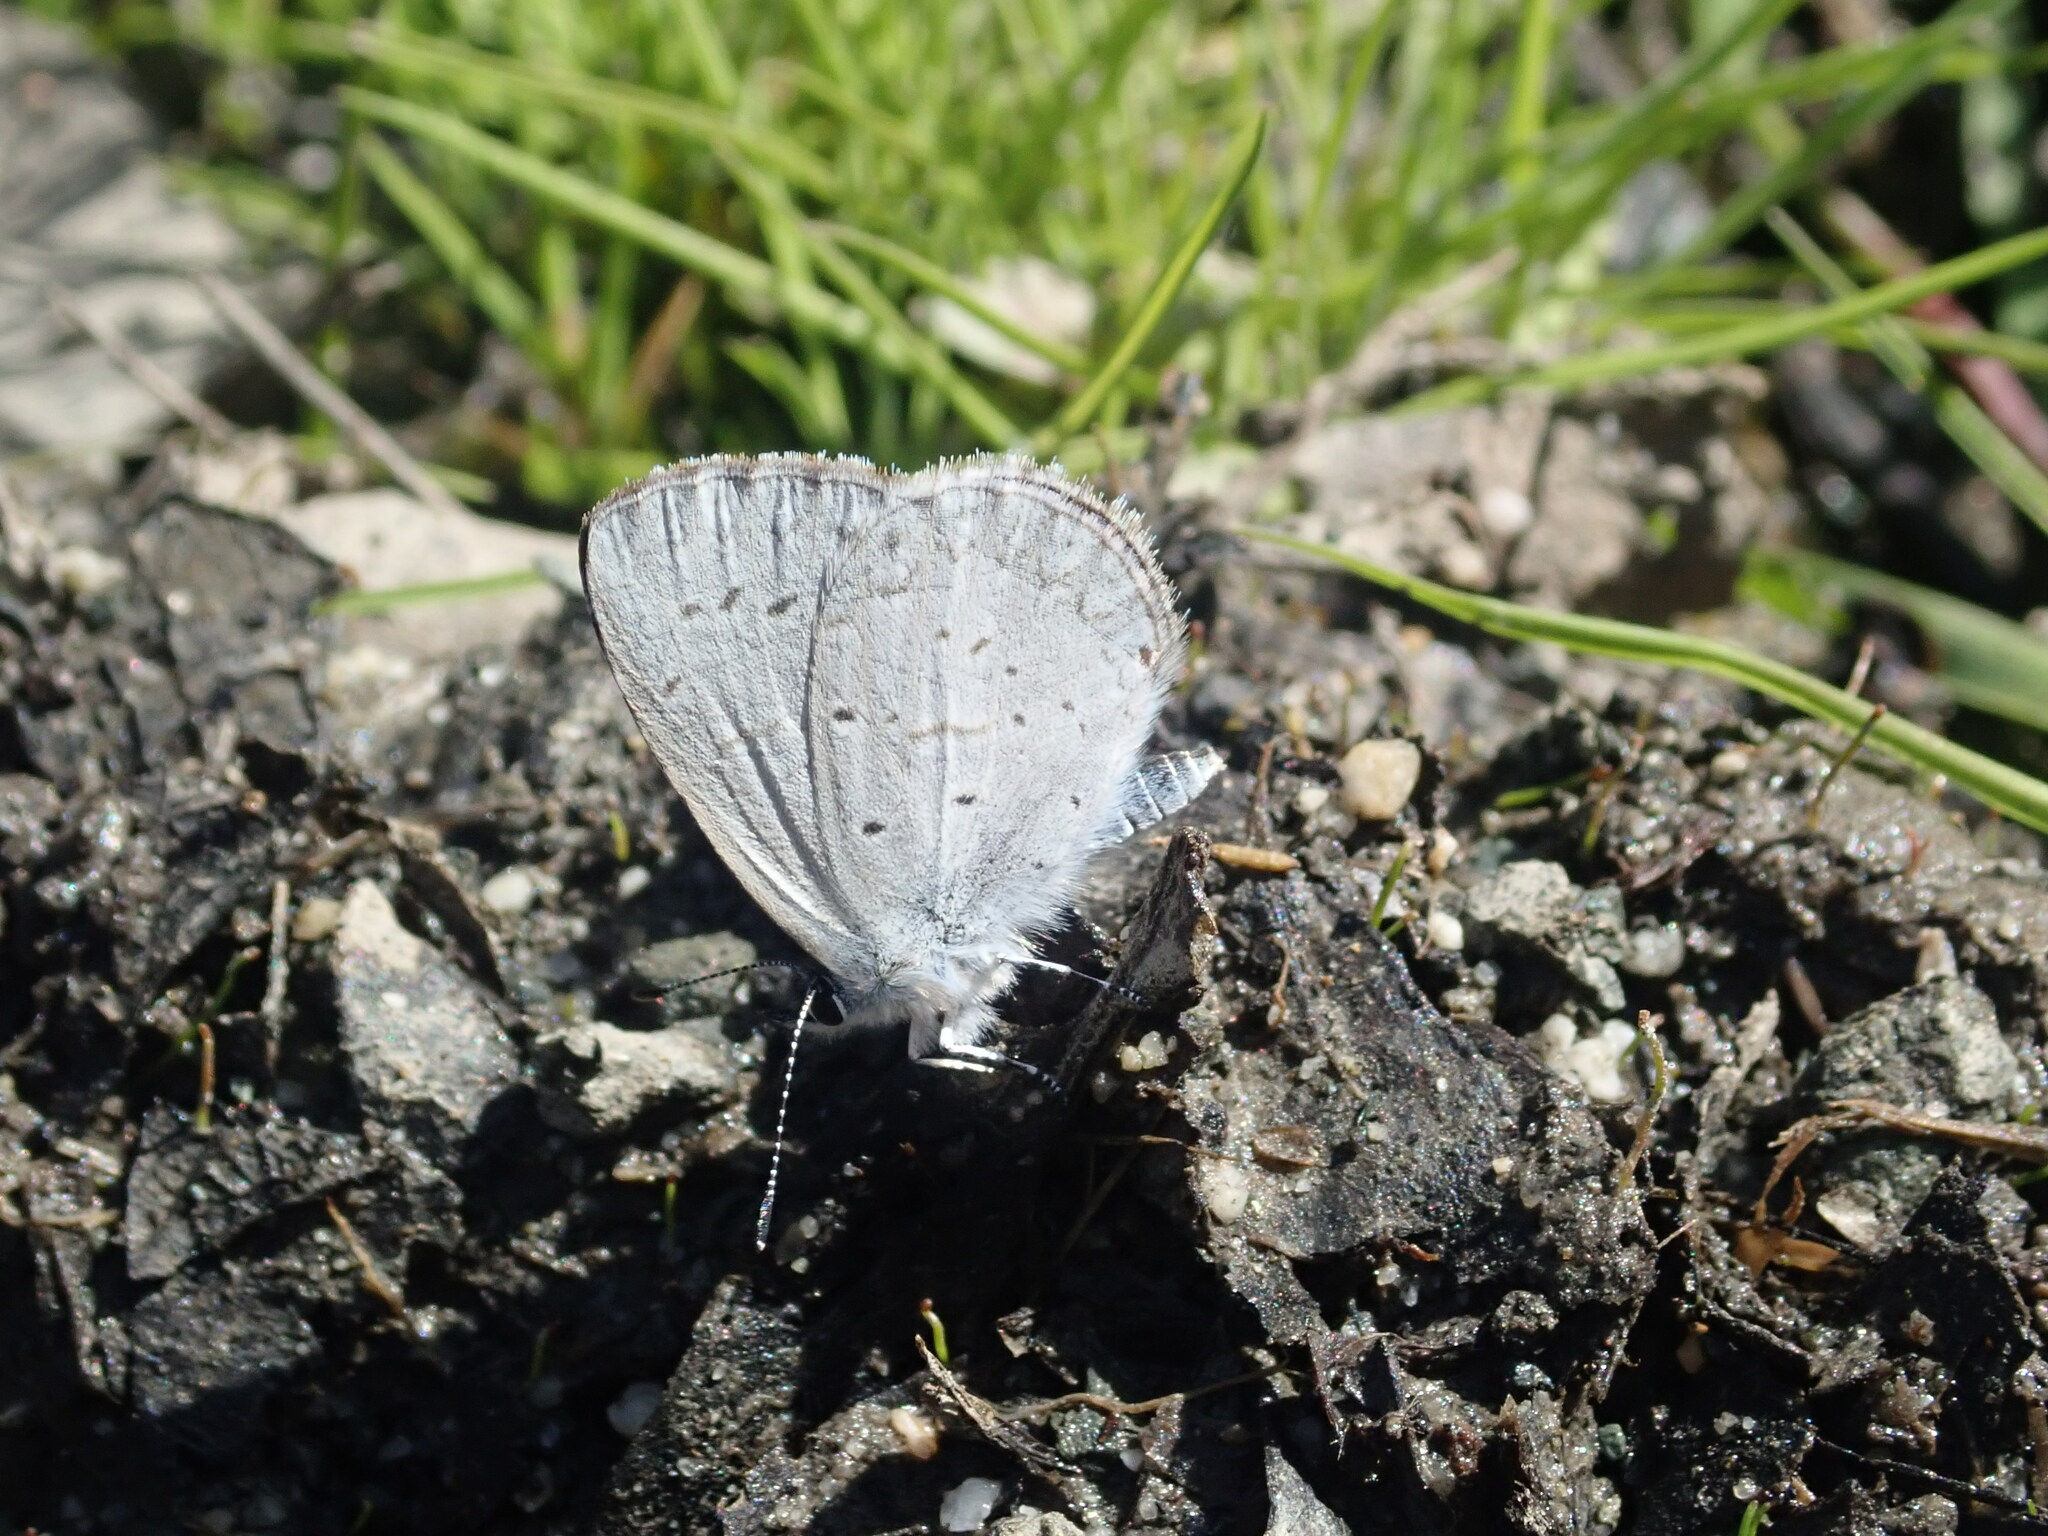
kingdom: Animalia
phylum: Arthropoda
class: Insecta
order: Lepidoptera
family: Lycaenidae
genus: Celastrina
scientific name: Celastrina ladon
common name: Spring azure
